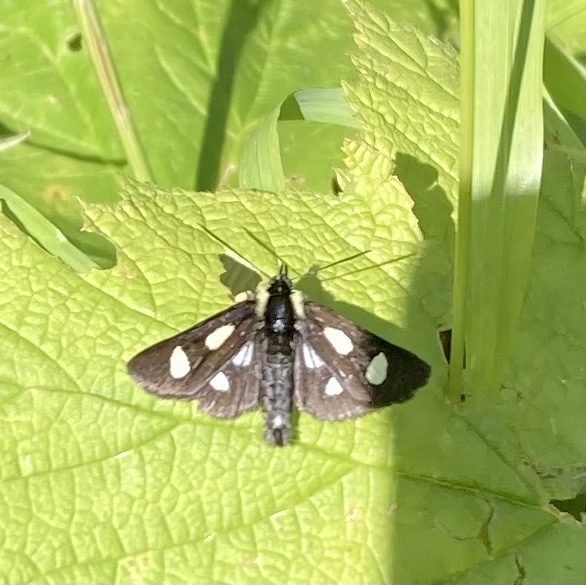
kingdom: Animalia
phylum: Arthropoda
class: Insecta
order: Lepidoptera
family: Noctuidae
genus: Alypia
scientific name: Alypia langtonii
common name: Fireweed caterpillar
